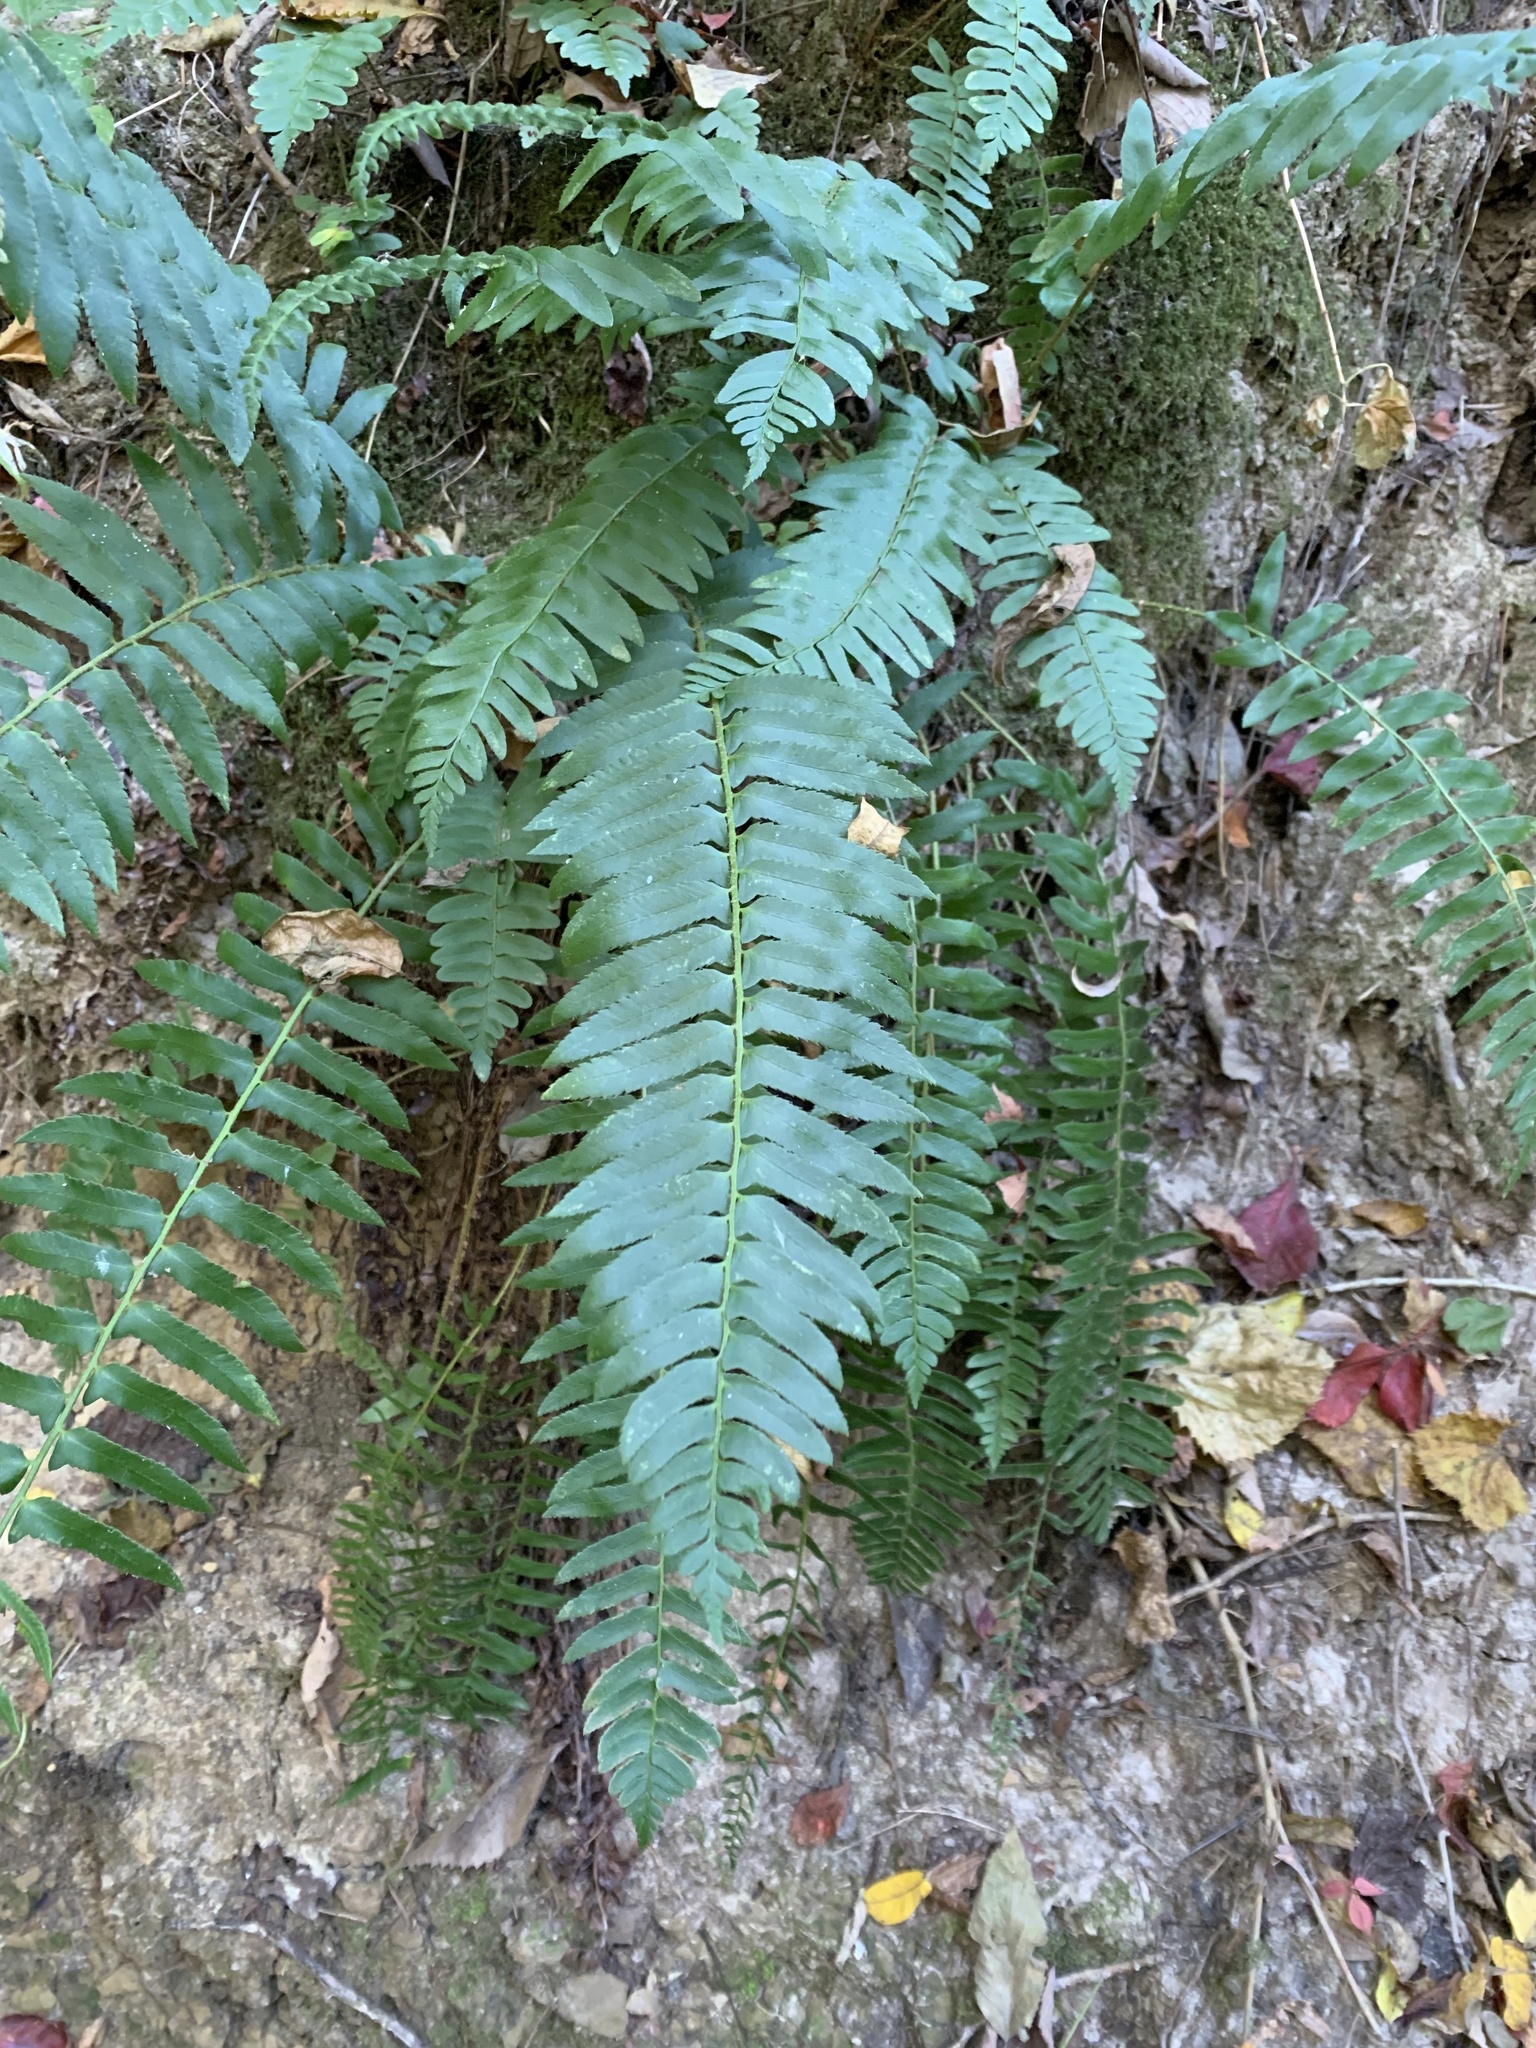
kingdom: Plantae
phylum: Tracheophyta
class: Polypodiopsida
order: Polypodiales
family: Dryopteridaceae
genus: Polystichum
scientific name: Polystichum acrostichoides
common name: Christmas fern
